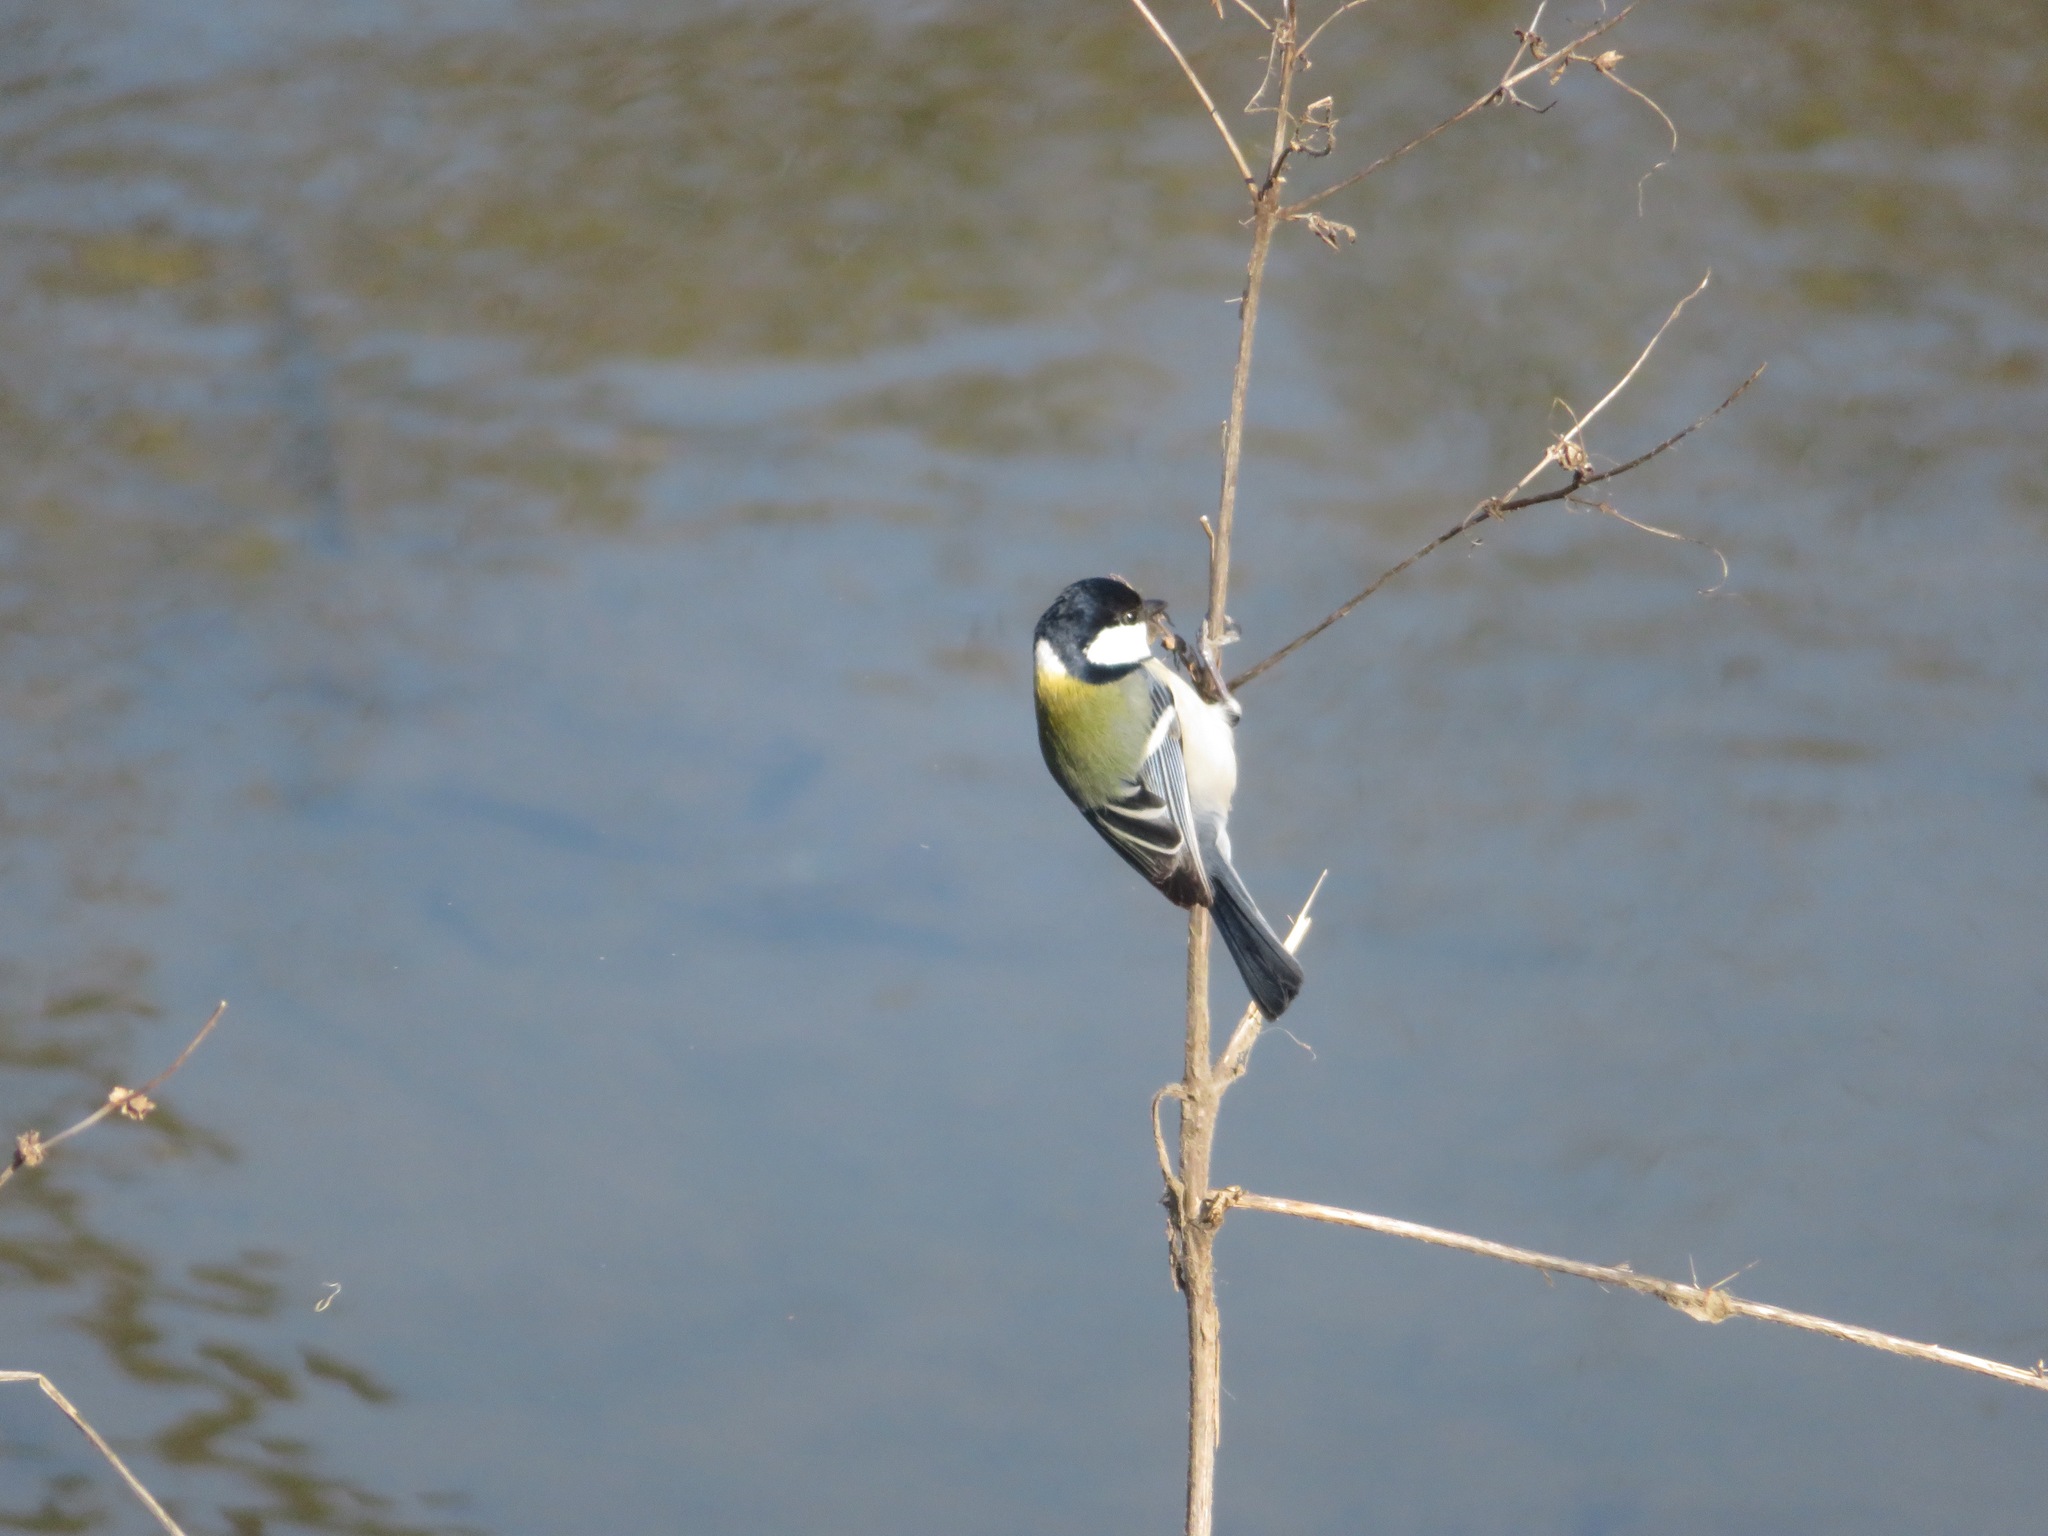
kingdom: Animalia
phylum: Chordata
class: Aves
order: Passeriformes
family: Paridae
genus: Parus
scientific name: Parus minor
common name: Japanese tit
